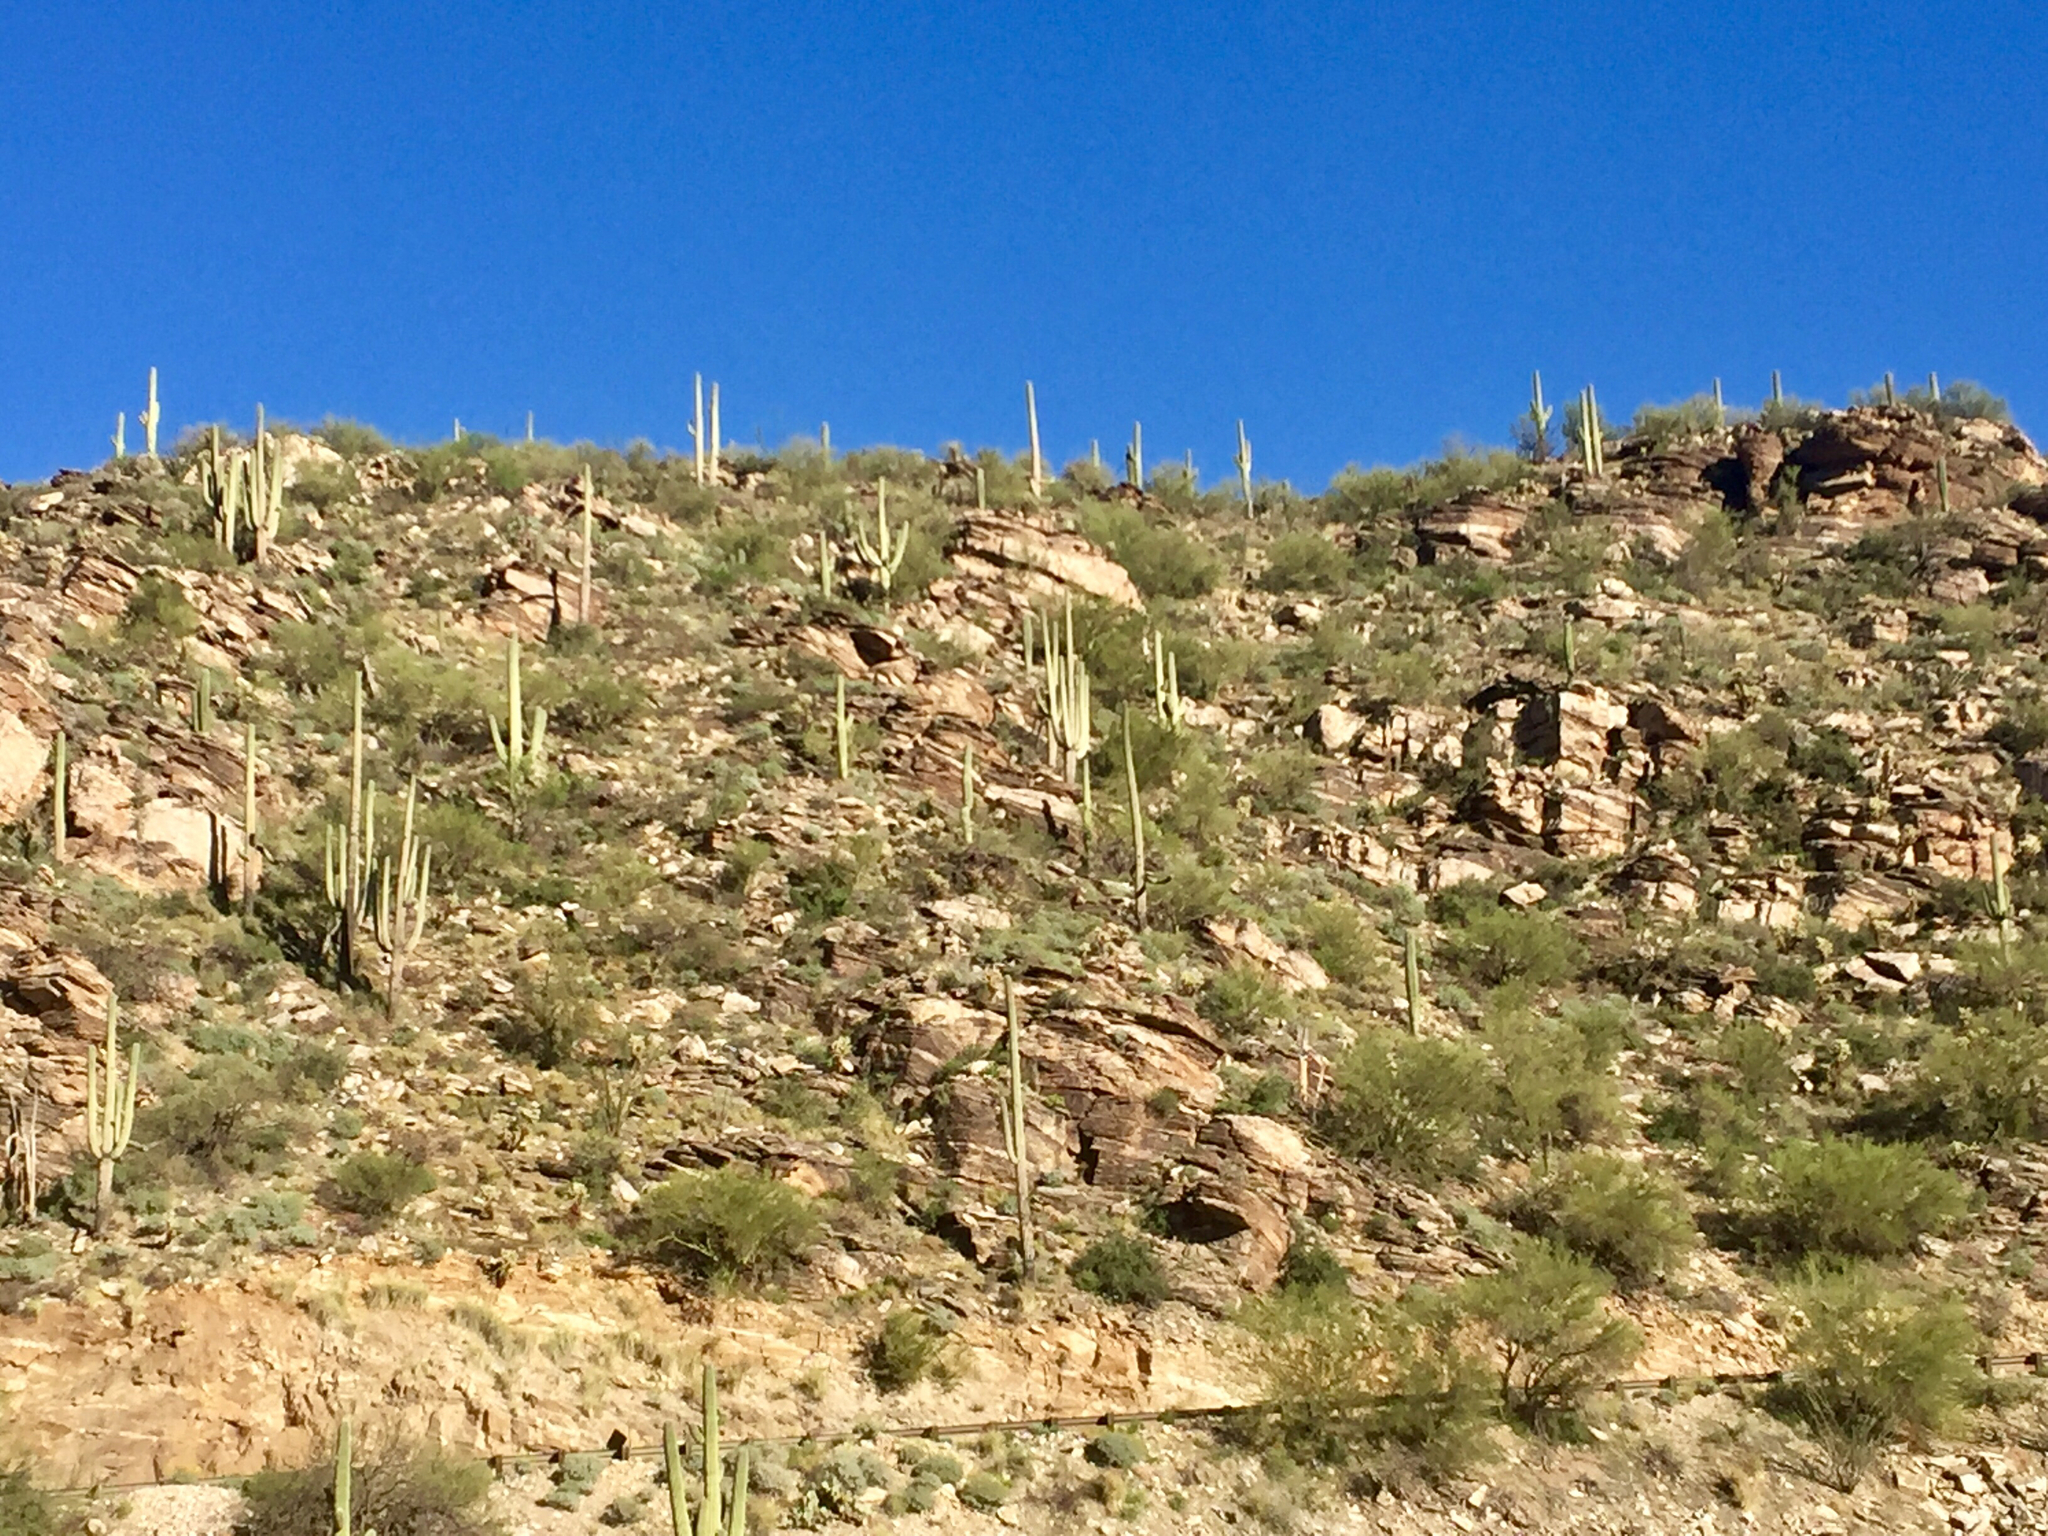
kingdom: Plantae
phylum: Tracheophyta
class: Magnoliopsida
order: Caryophyllales
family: Cactaceae
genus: Carnegiea
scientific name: Carnegiea gigantea
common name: Saguaro
